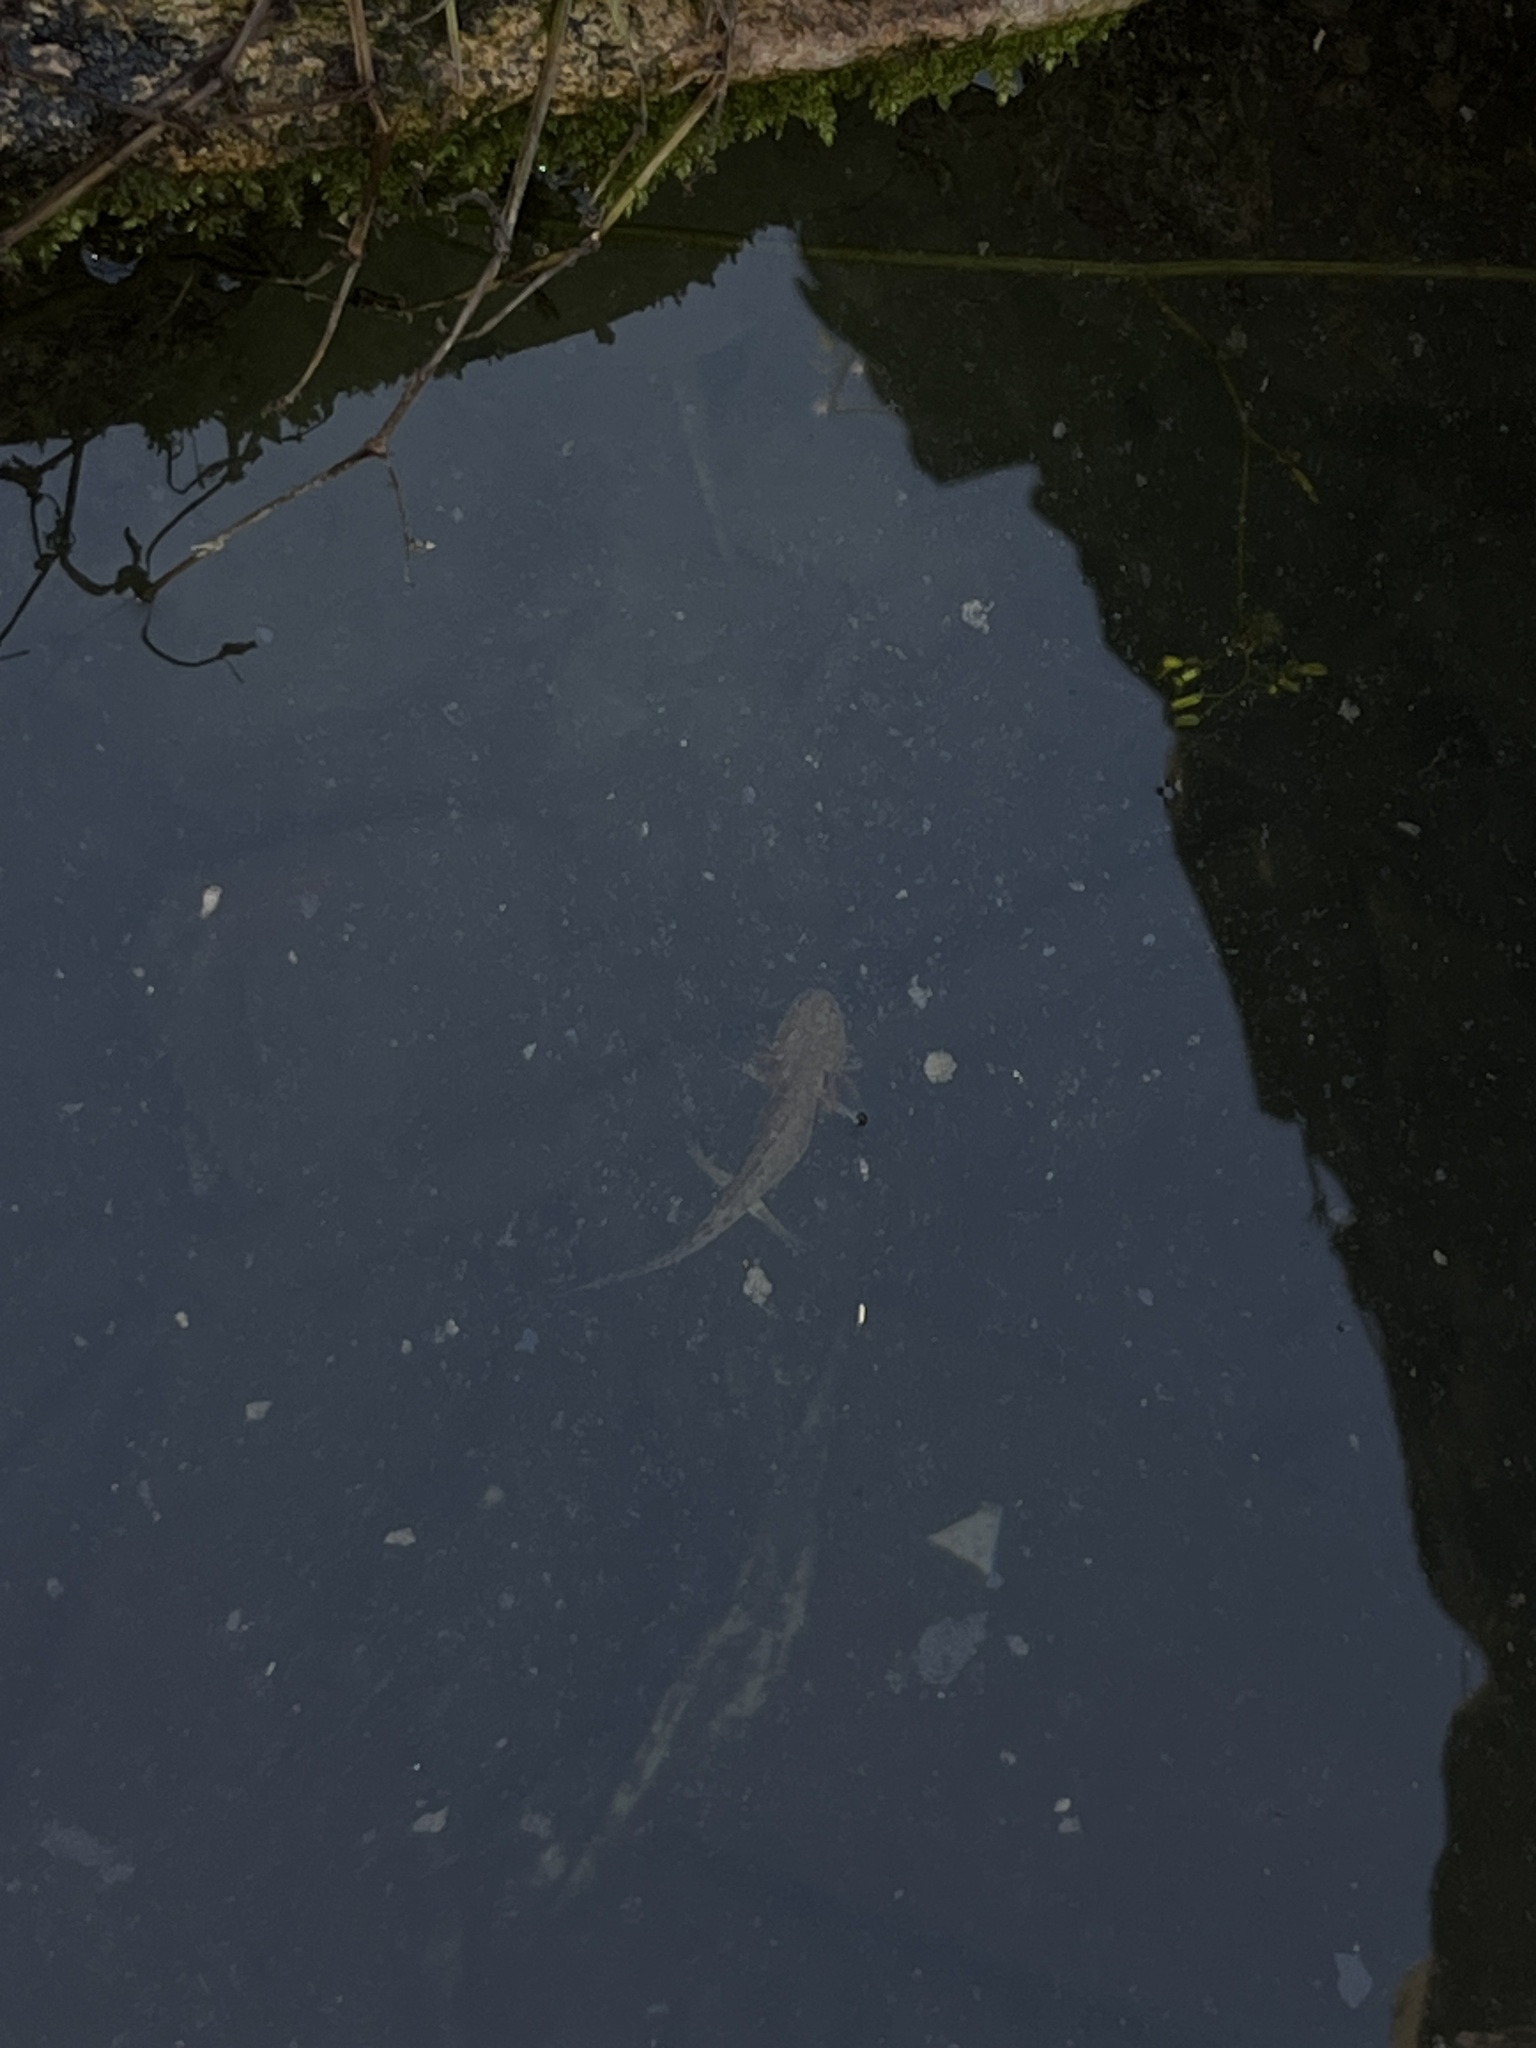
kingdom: Animalia
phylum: Chordata
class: Amphibia
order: Caudata
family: Hynobiidae
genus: Hynobius
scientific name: Hynobius yiwuensis
